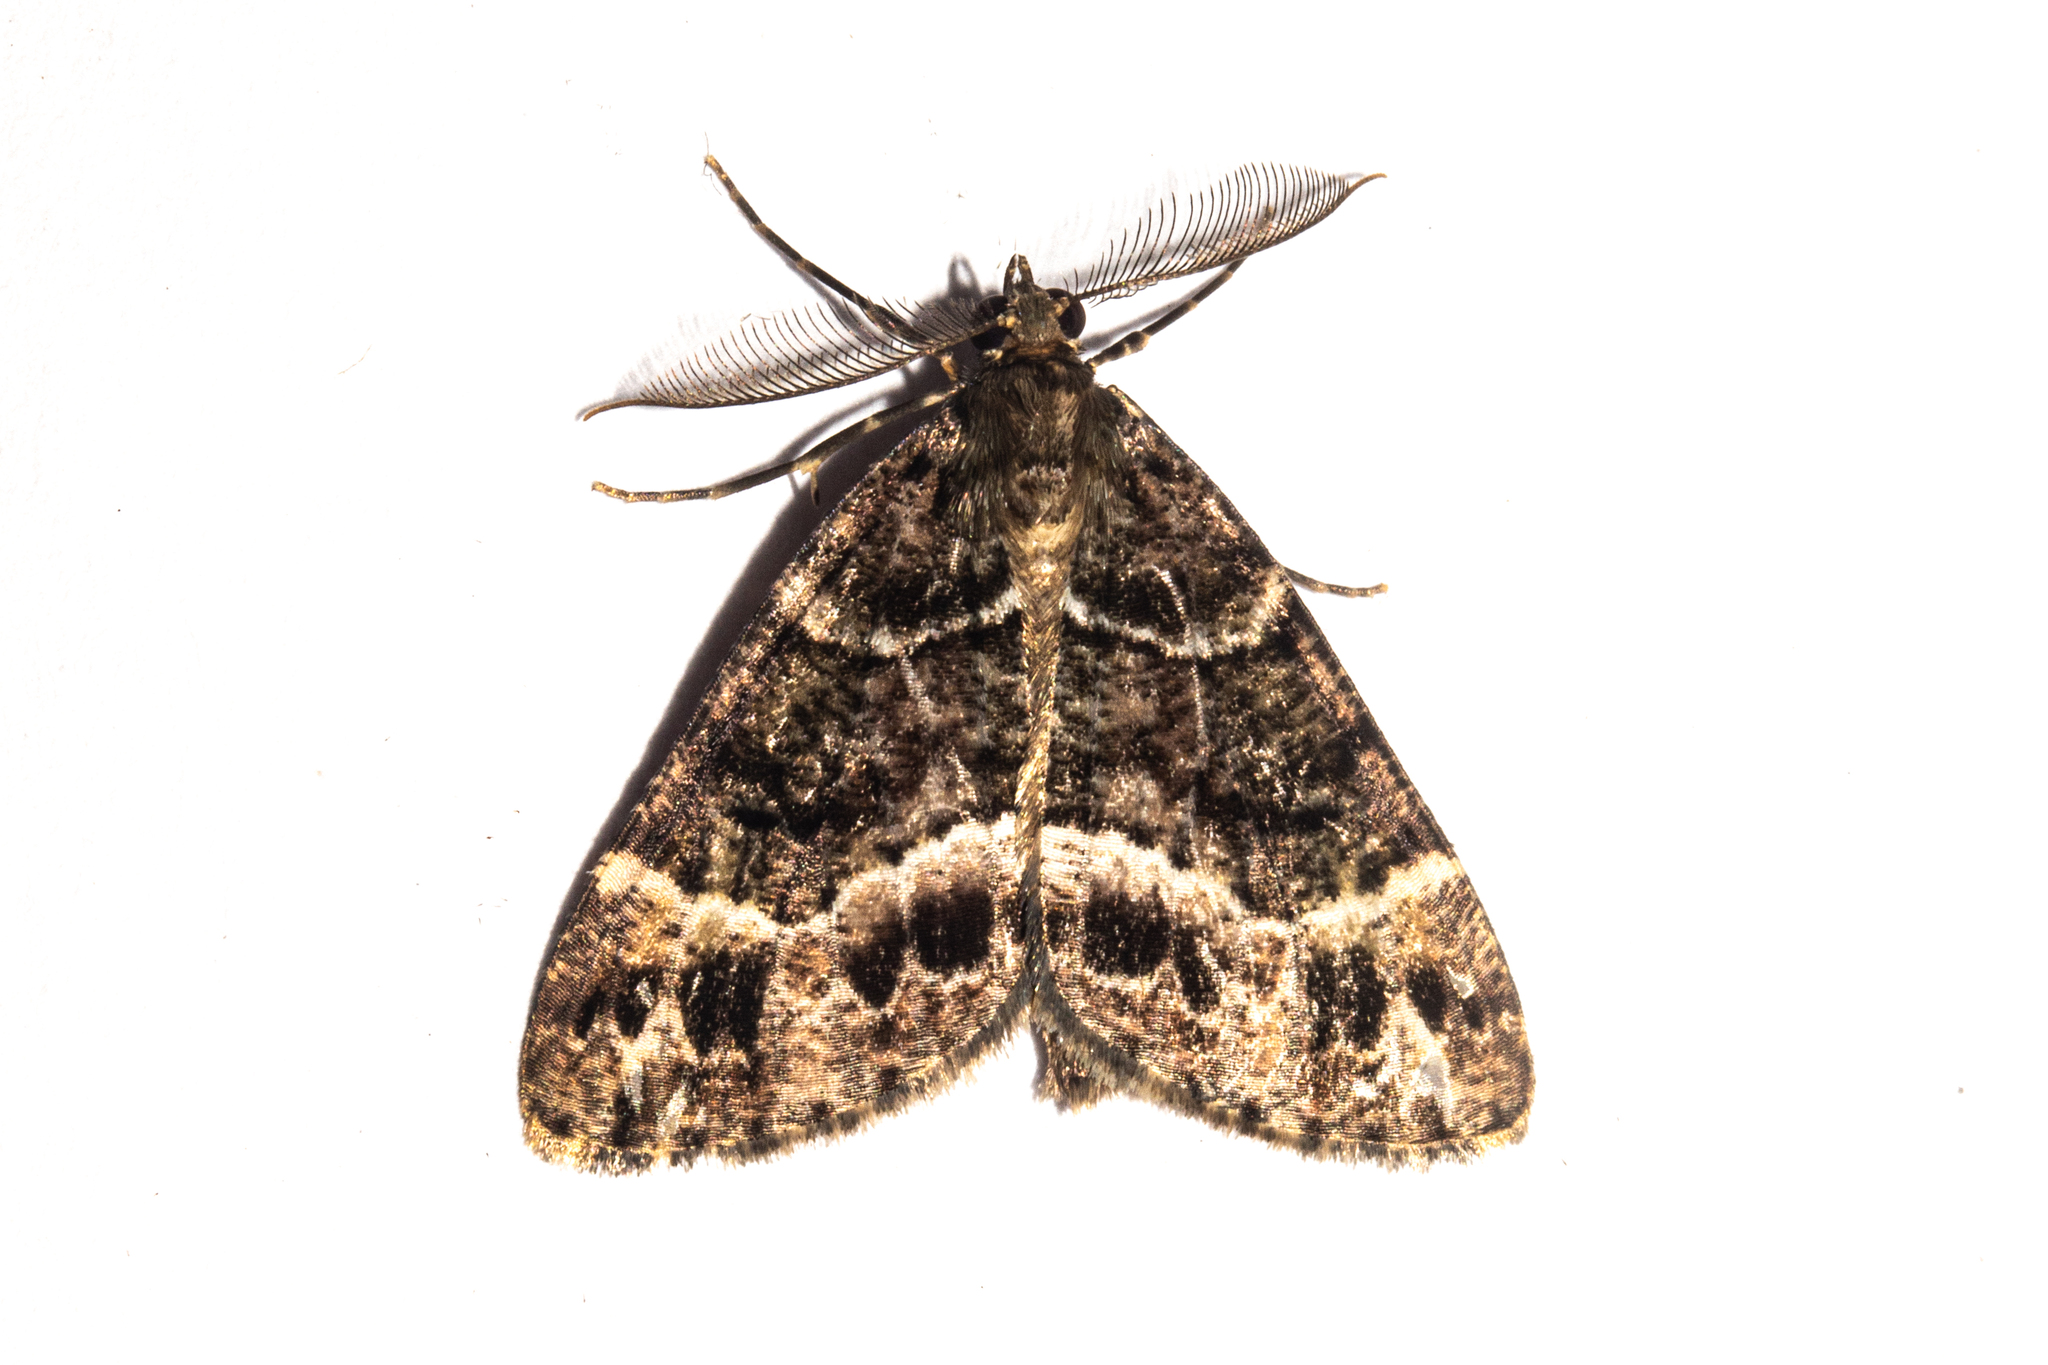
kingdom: Animalia
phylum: Arthropoda
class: Insecta
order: Lepidoptera
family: Geometridae
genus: Pseudocoremia
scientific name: Pseudocoremia productata
